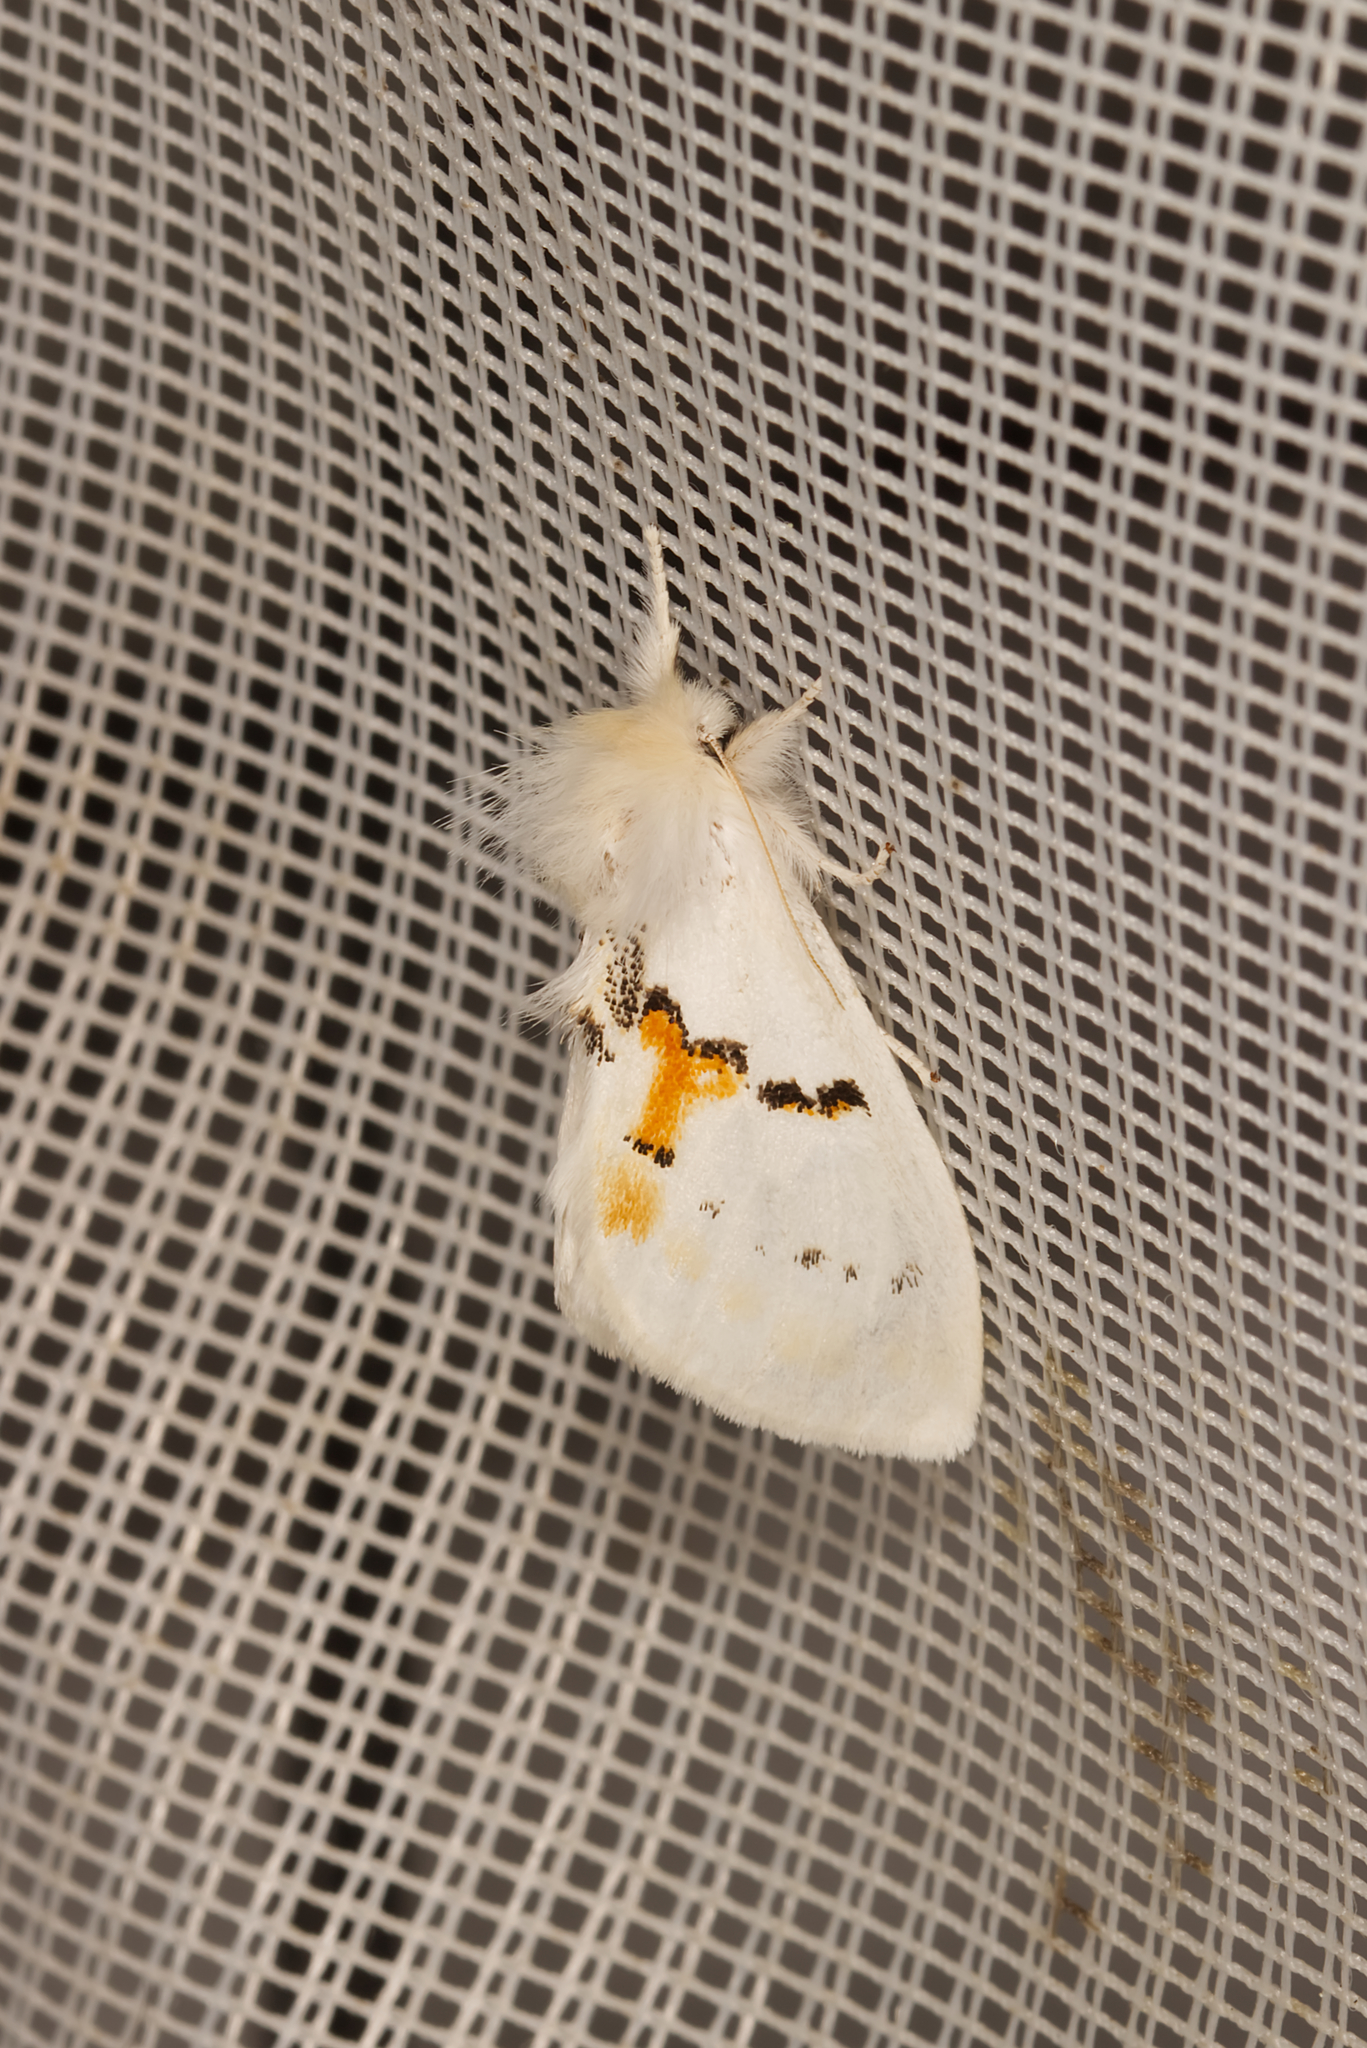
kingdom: Animalia
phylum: Arthropoda
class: Insecta
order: Lepidoptera
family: Notodontidae
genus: Leucodonta
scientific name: Leucodonta bicoloria
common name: White prominent
